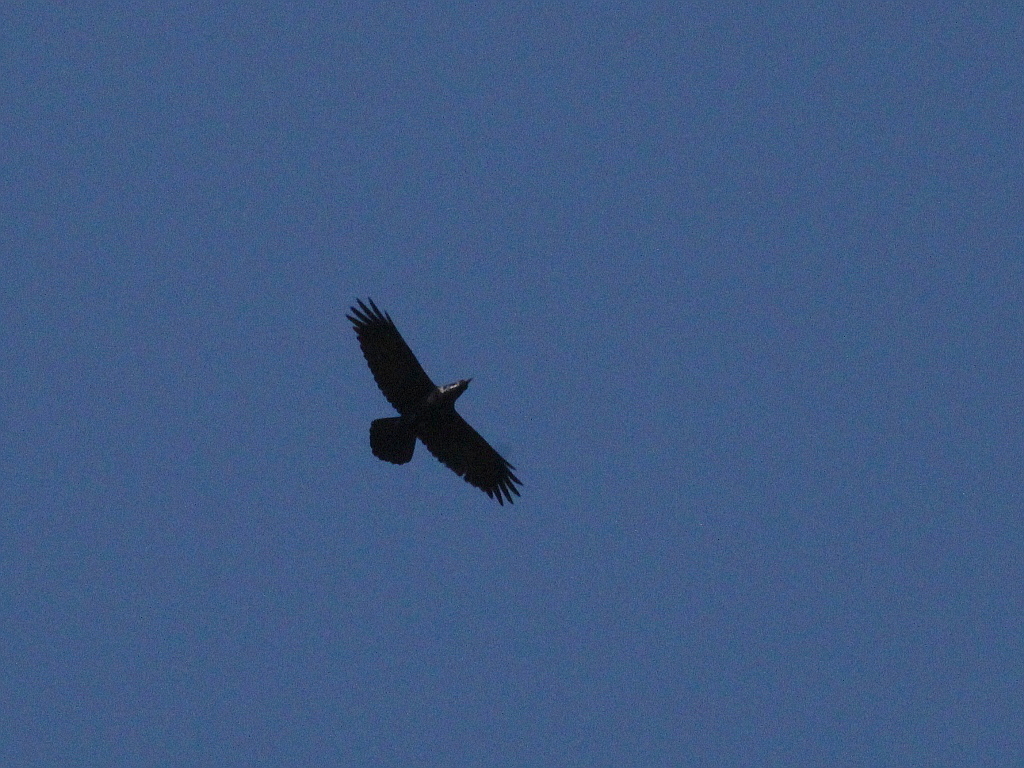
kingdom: Animalia
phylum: Chordata
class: Aves
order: Passeriformes
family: Corvidae
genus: Corvus
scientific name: Corvus corax
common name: Common raven
